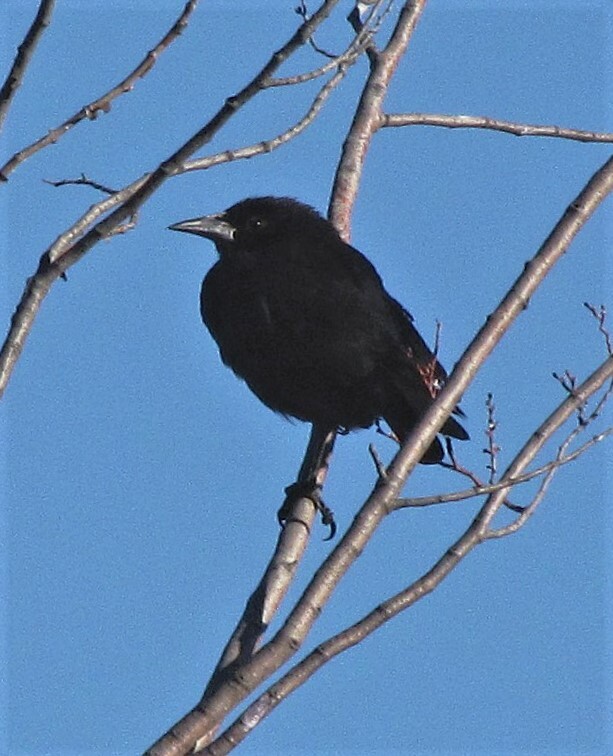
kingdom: Animalia
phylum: Chordata
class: Aves
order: Passeriformes
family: Icteridae
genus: Curaeus
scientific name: Curaeus curaeus
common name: Austral blackbird
